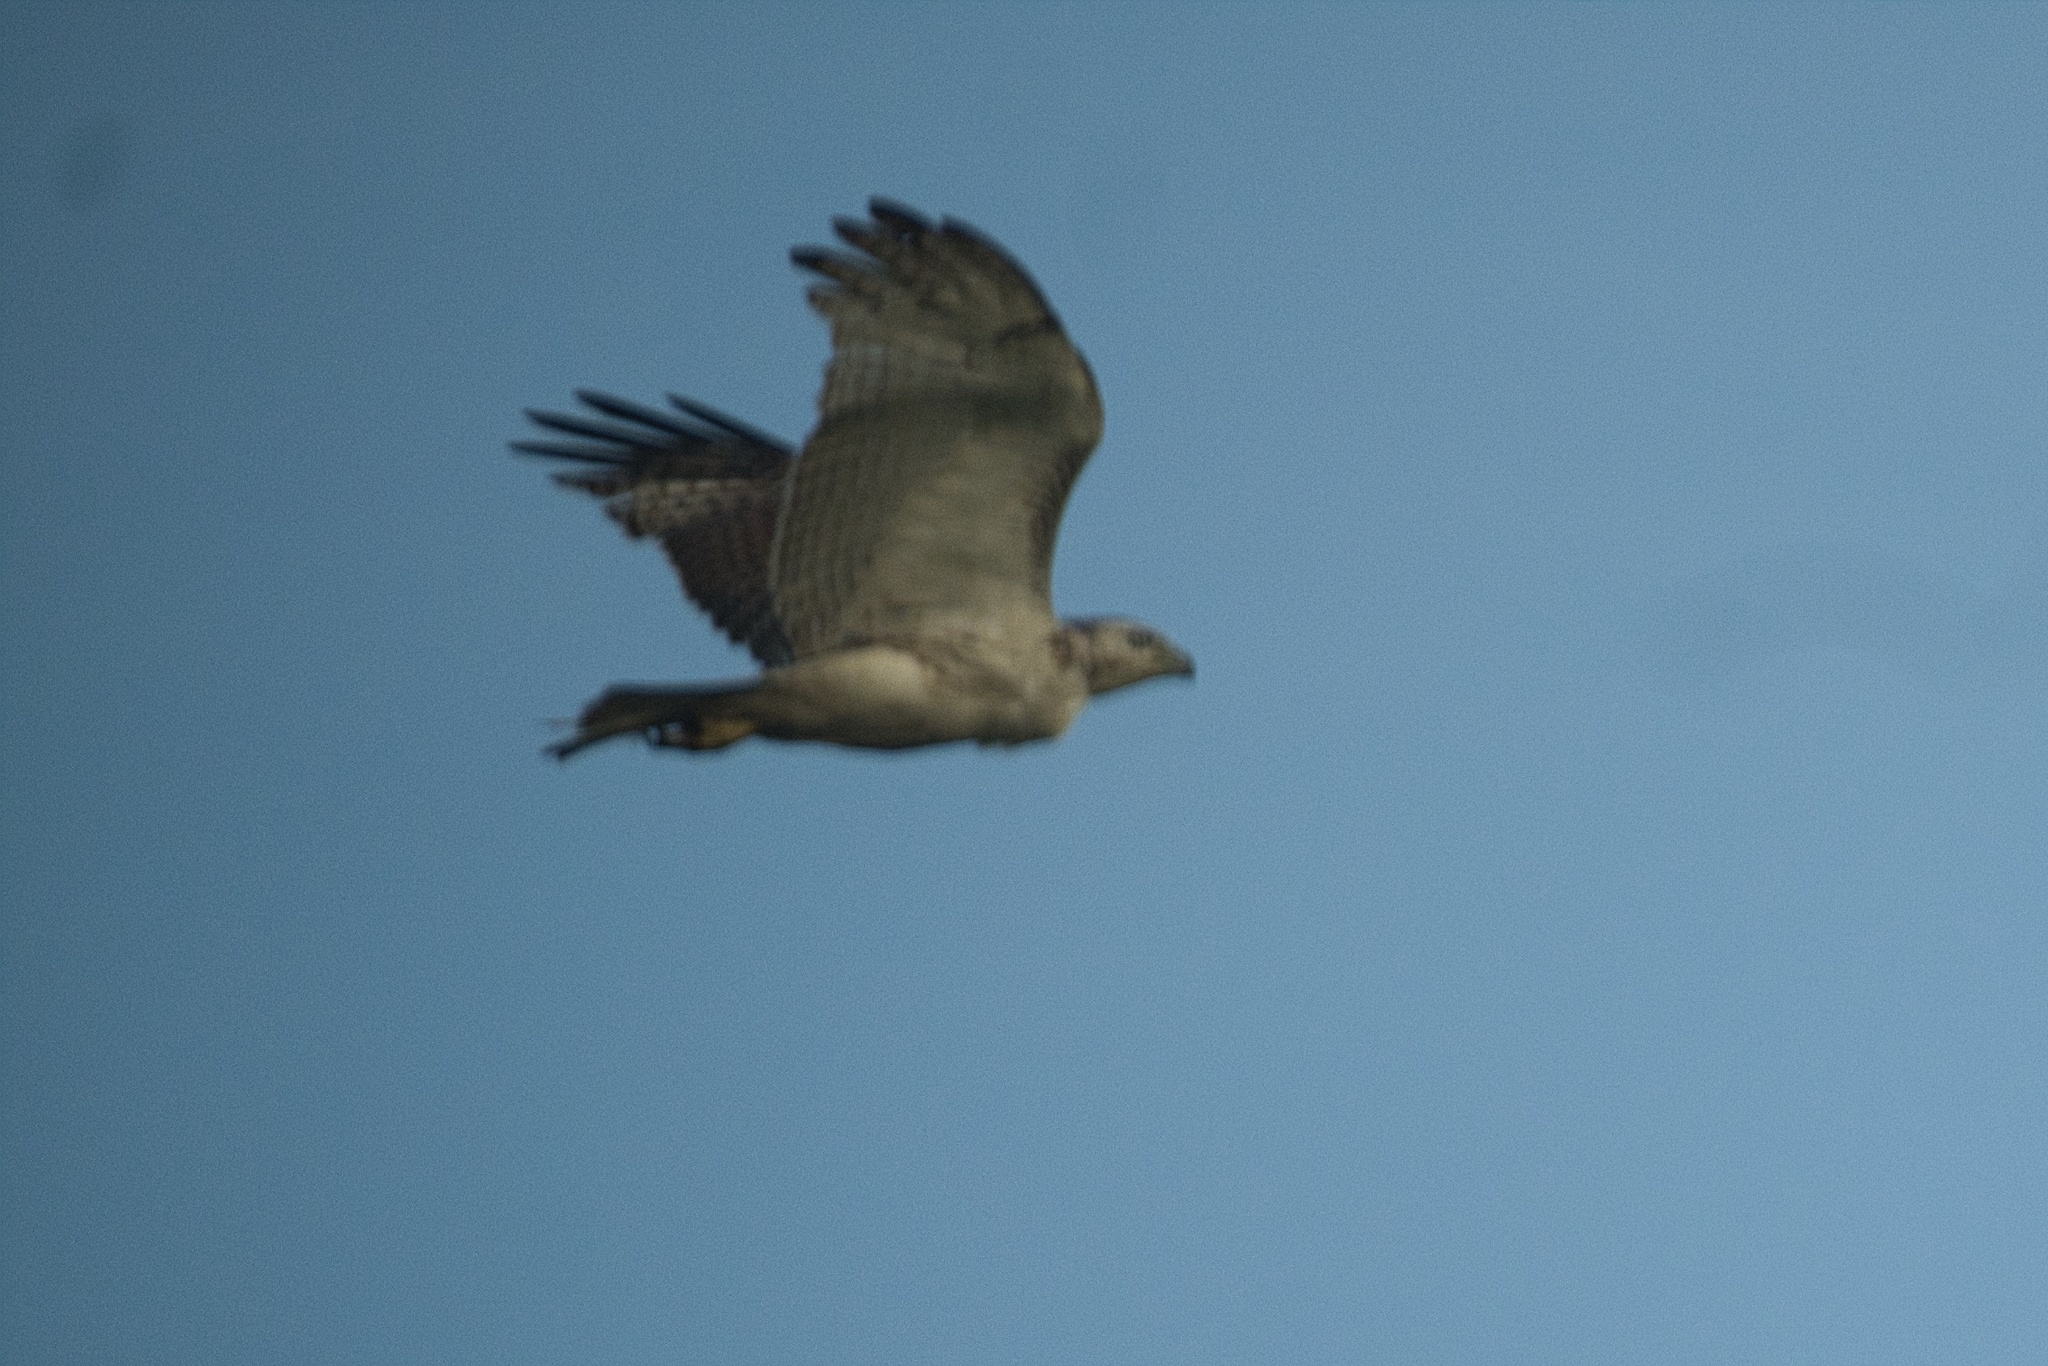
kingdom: Animalia
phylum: Chordata
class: Aves
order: Accipitriformes
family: Accipitridae
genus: Buteo
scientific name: Buteo jamaicensis
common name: Red-tailed hawk
